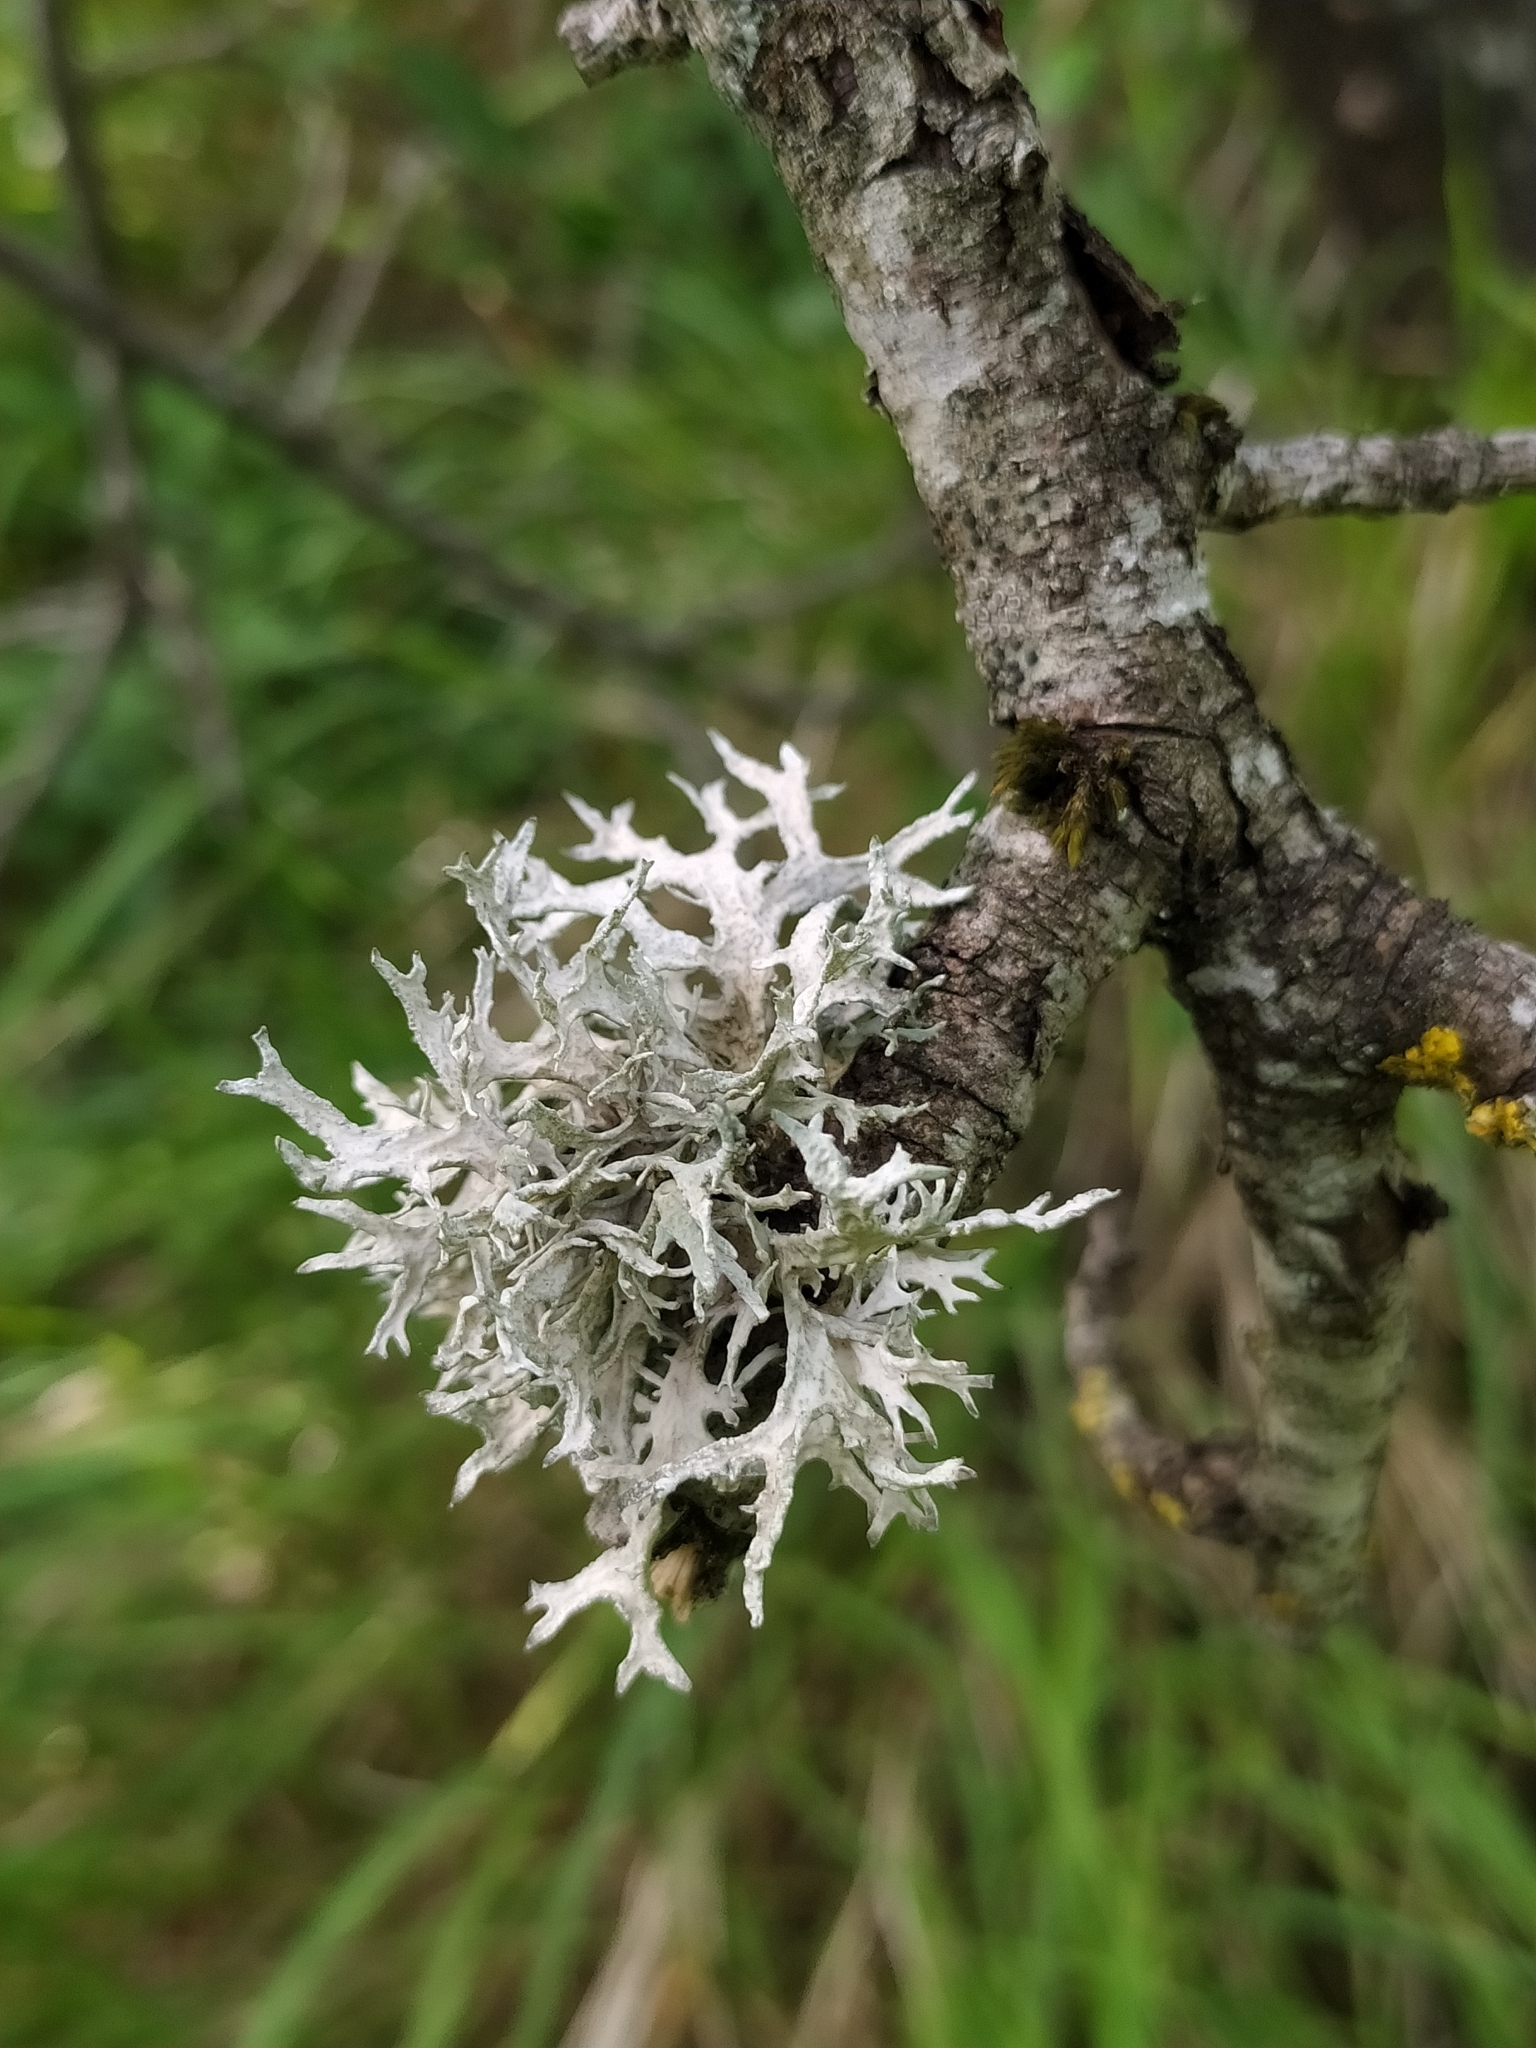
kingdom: Fungi
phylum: Ascomycota
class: Lecanoromycetes
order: Lecanorales
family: Parmeliaceae
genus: Evernia
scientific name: Evernia prunastri
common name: Oak moss
